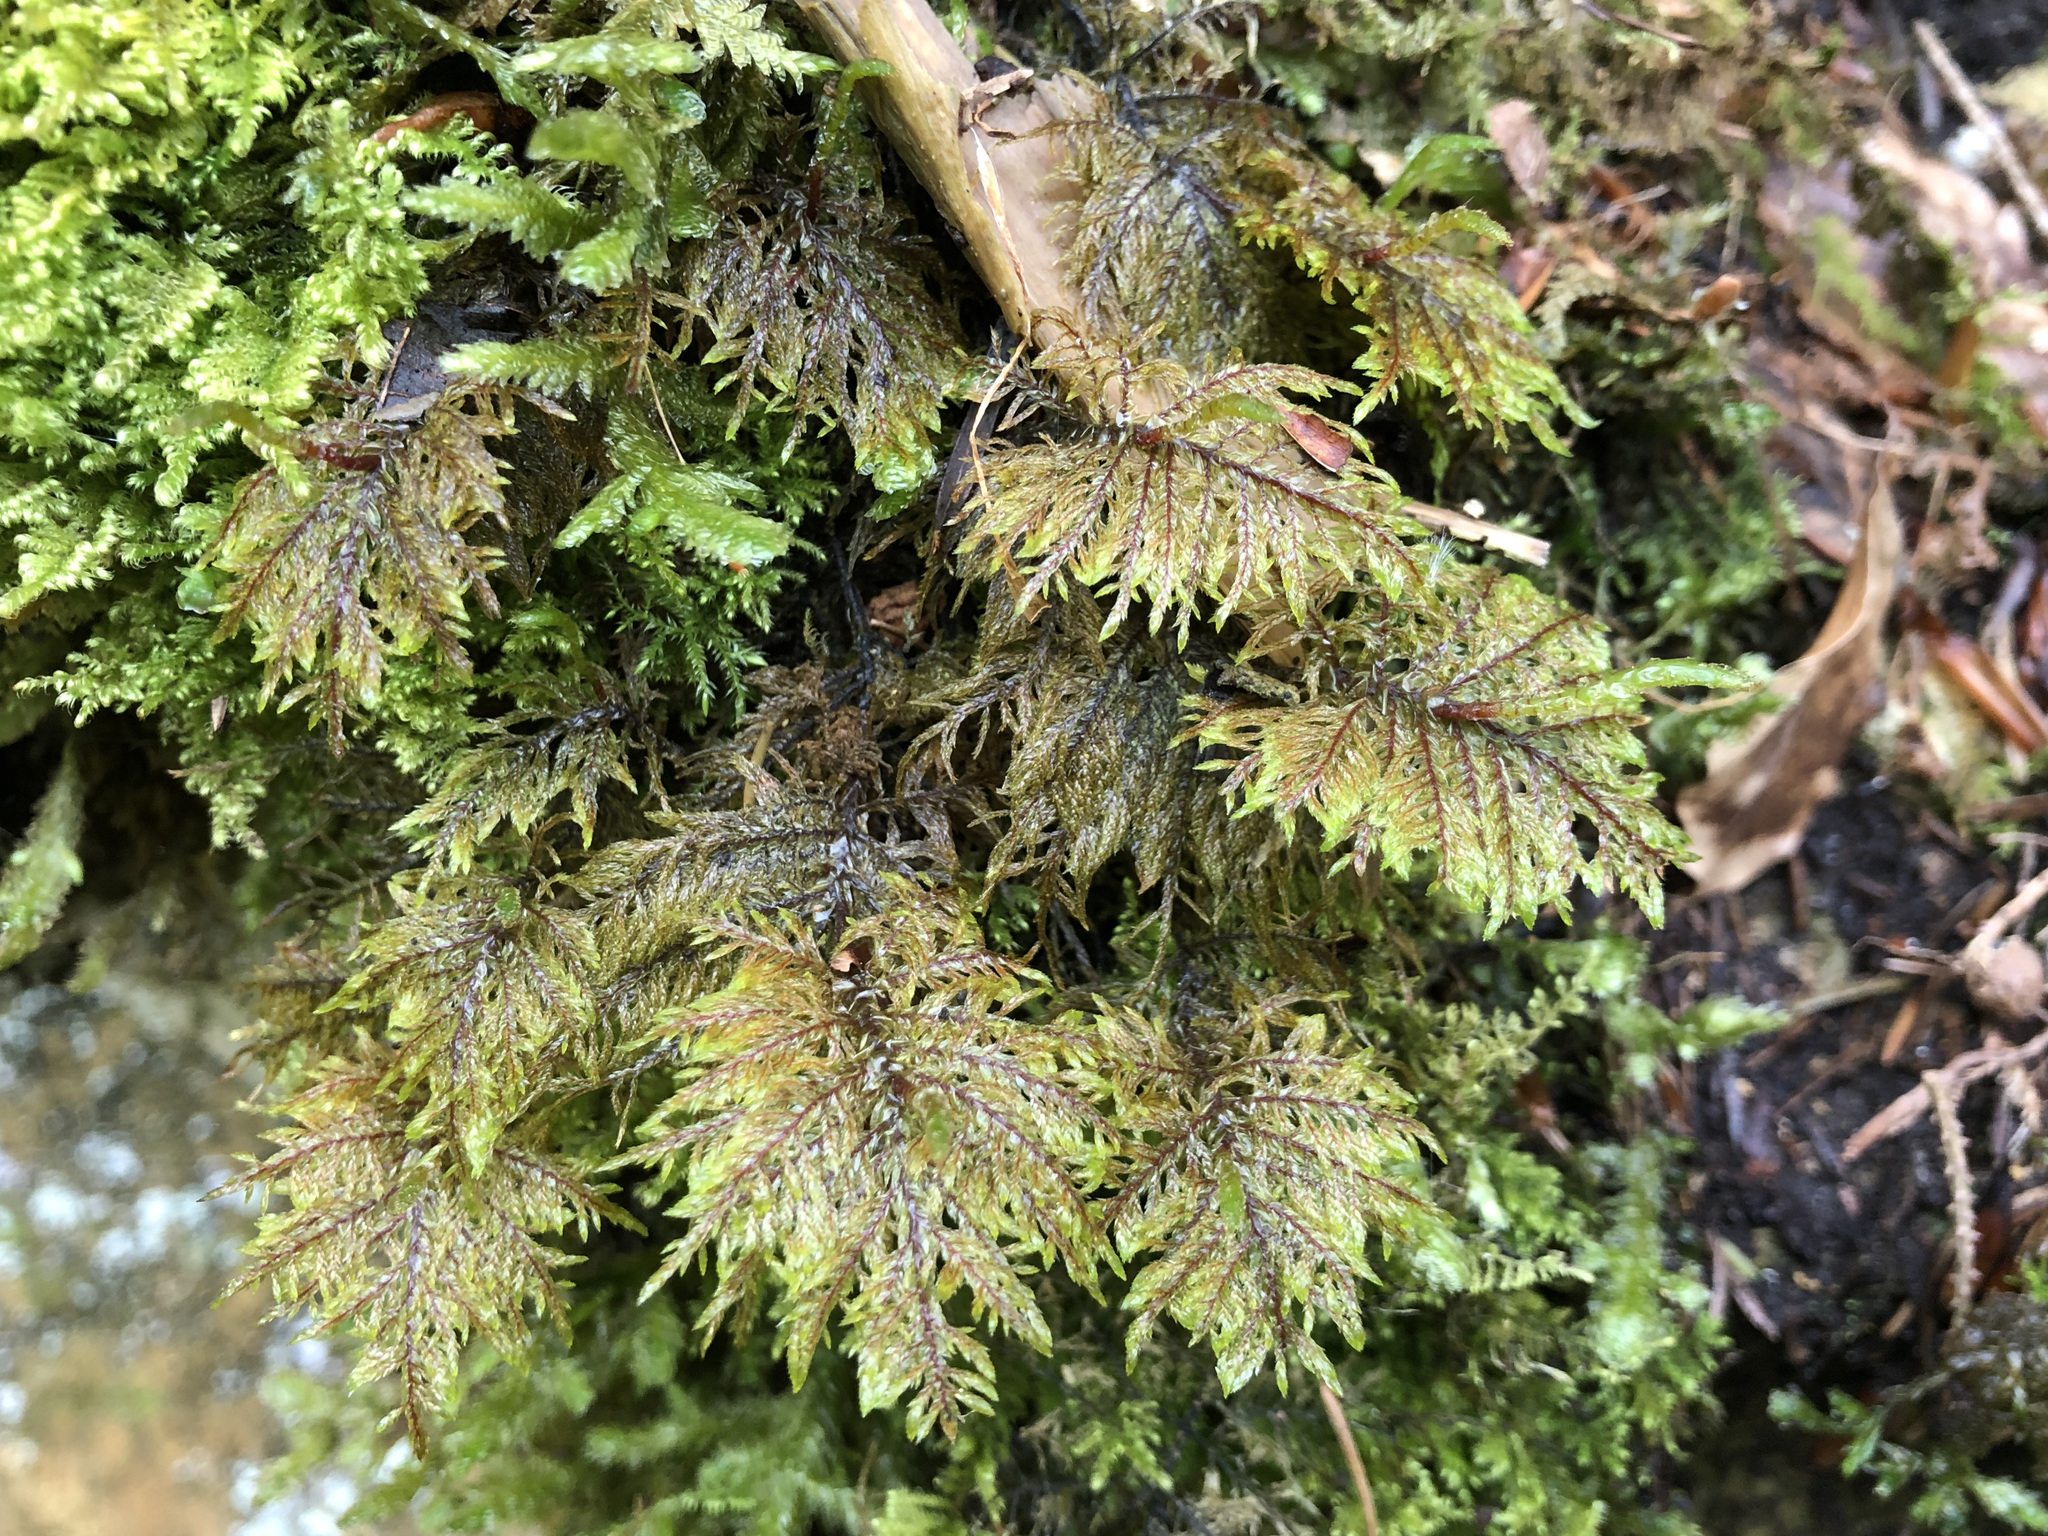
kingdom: Plantae
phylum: Bryophyta
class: Bryopsida
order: Hypnales
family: Hylocomiaceae
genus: Hylocomium
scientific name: Hylocomium splendens
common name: Stairstep moss
